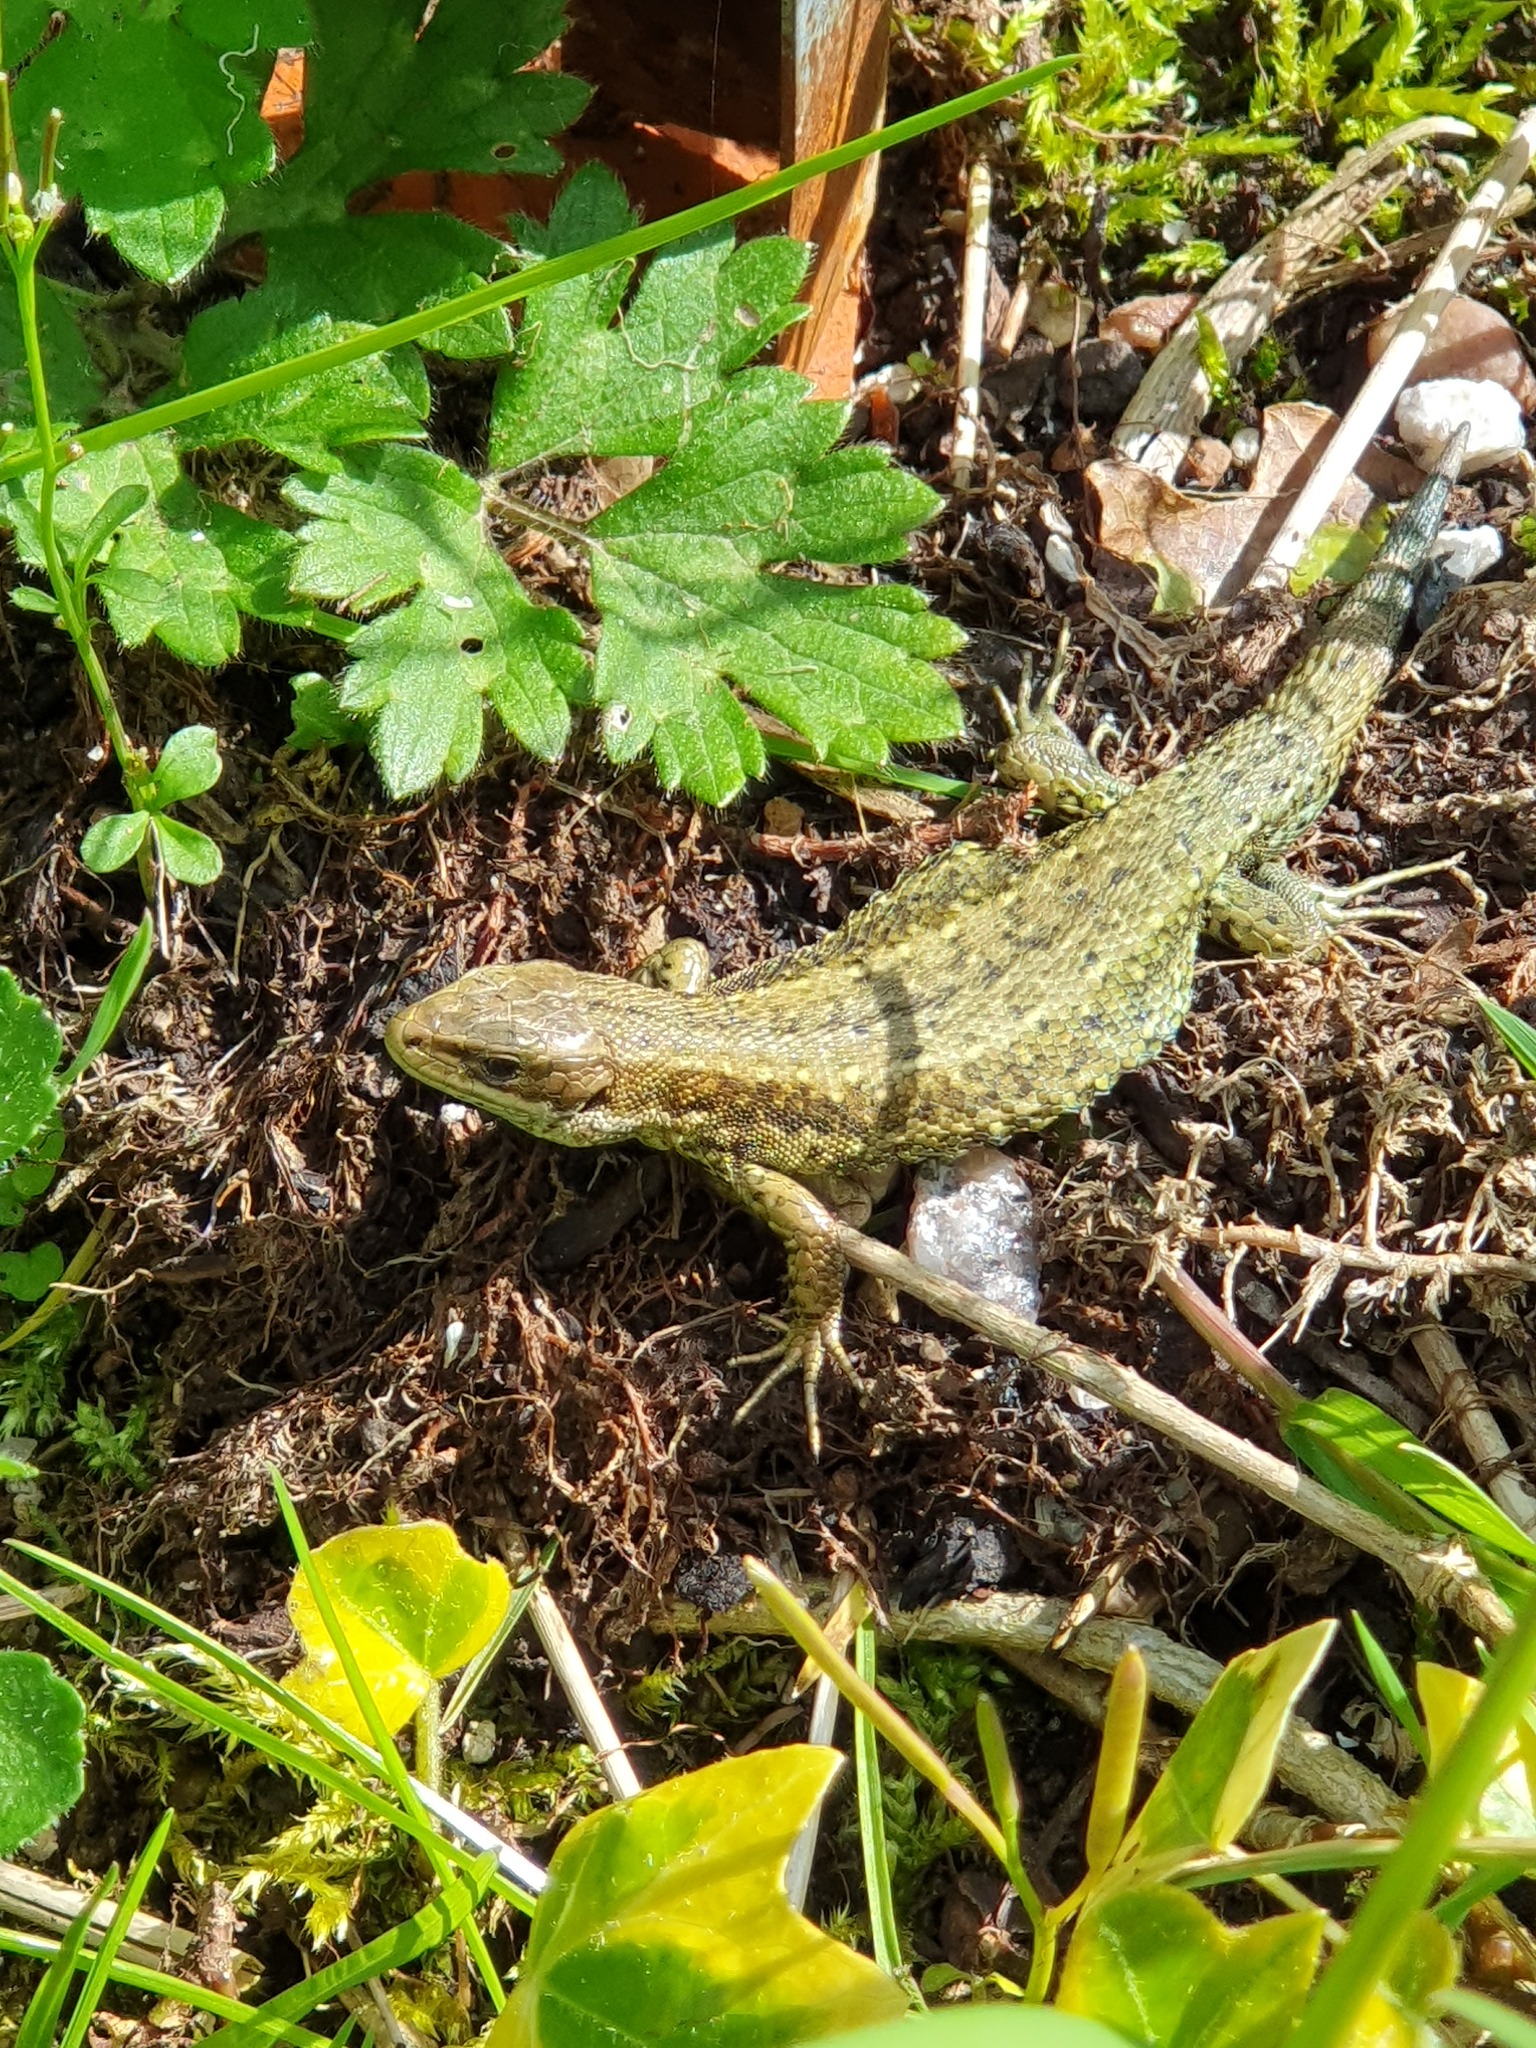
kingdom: Animalia
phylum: Chordata
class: Squamata
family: Lacertidae
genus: Zootoca
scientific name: Zootoca vivipara
